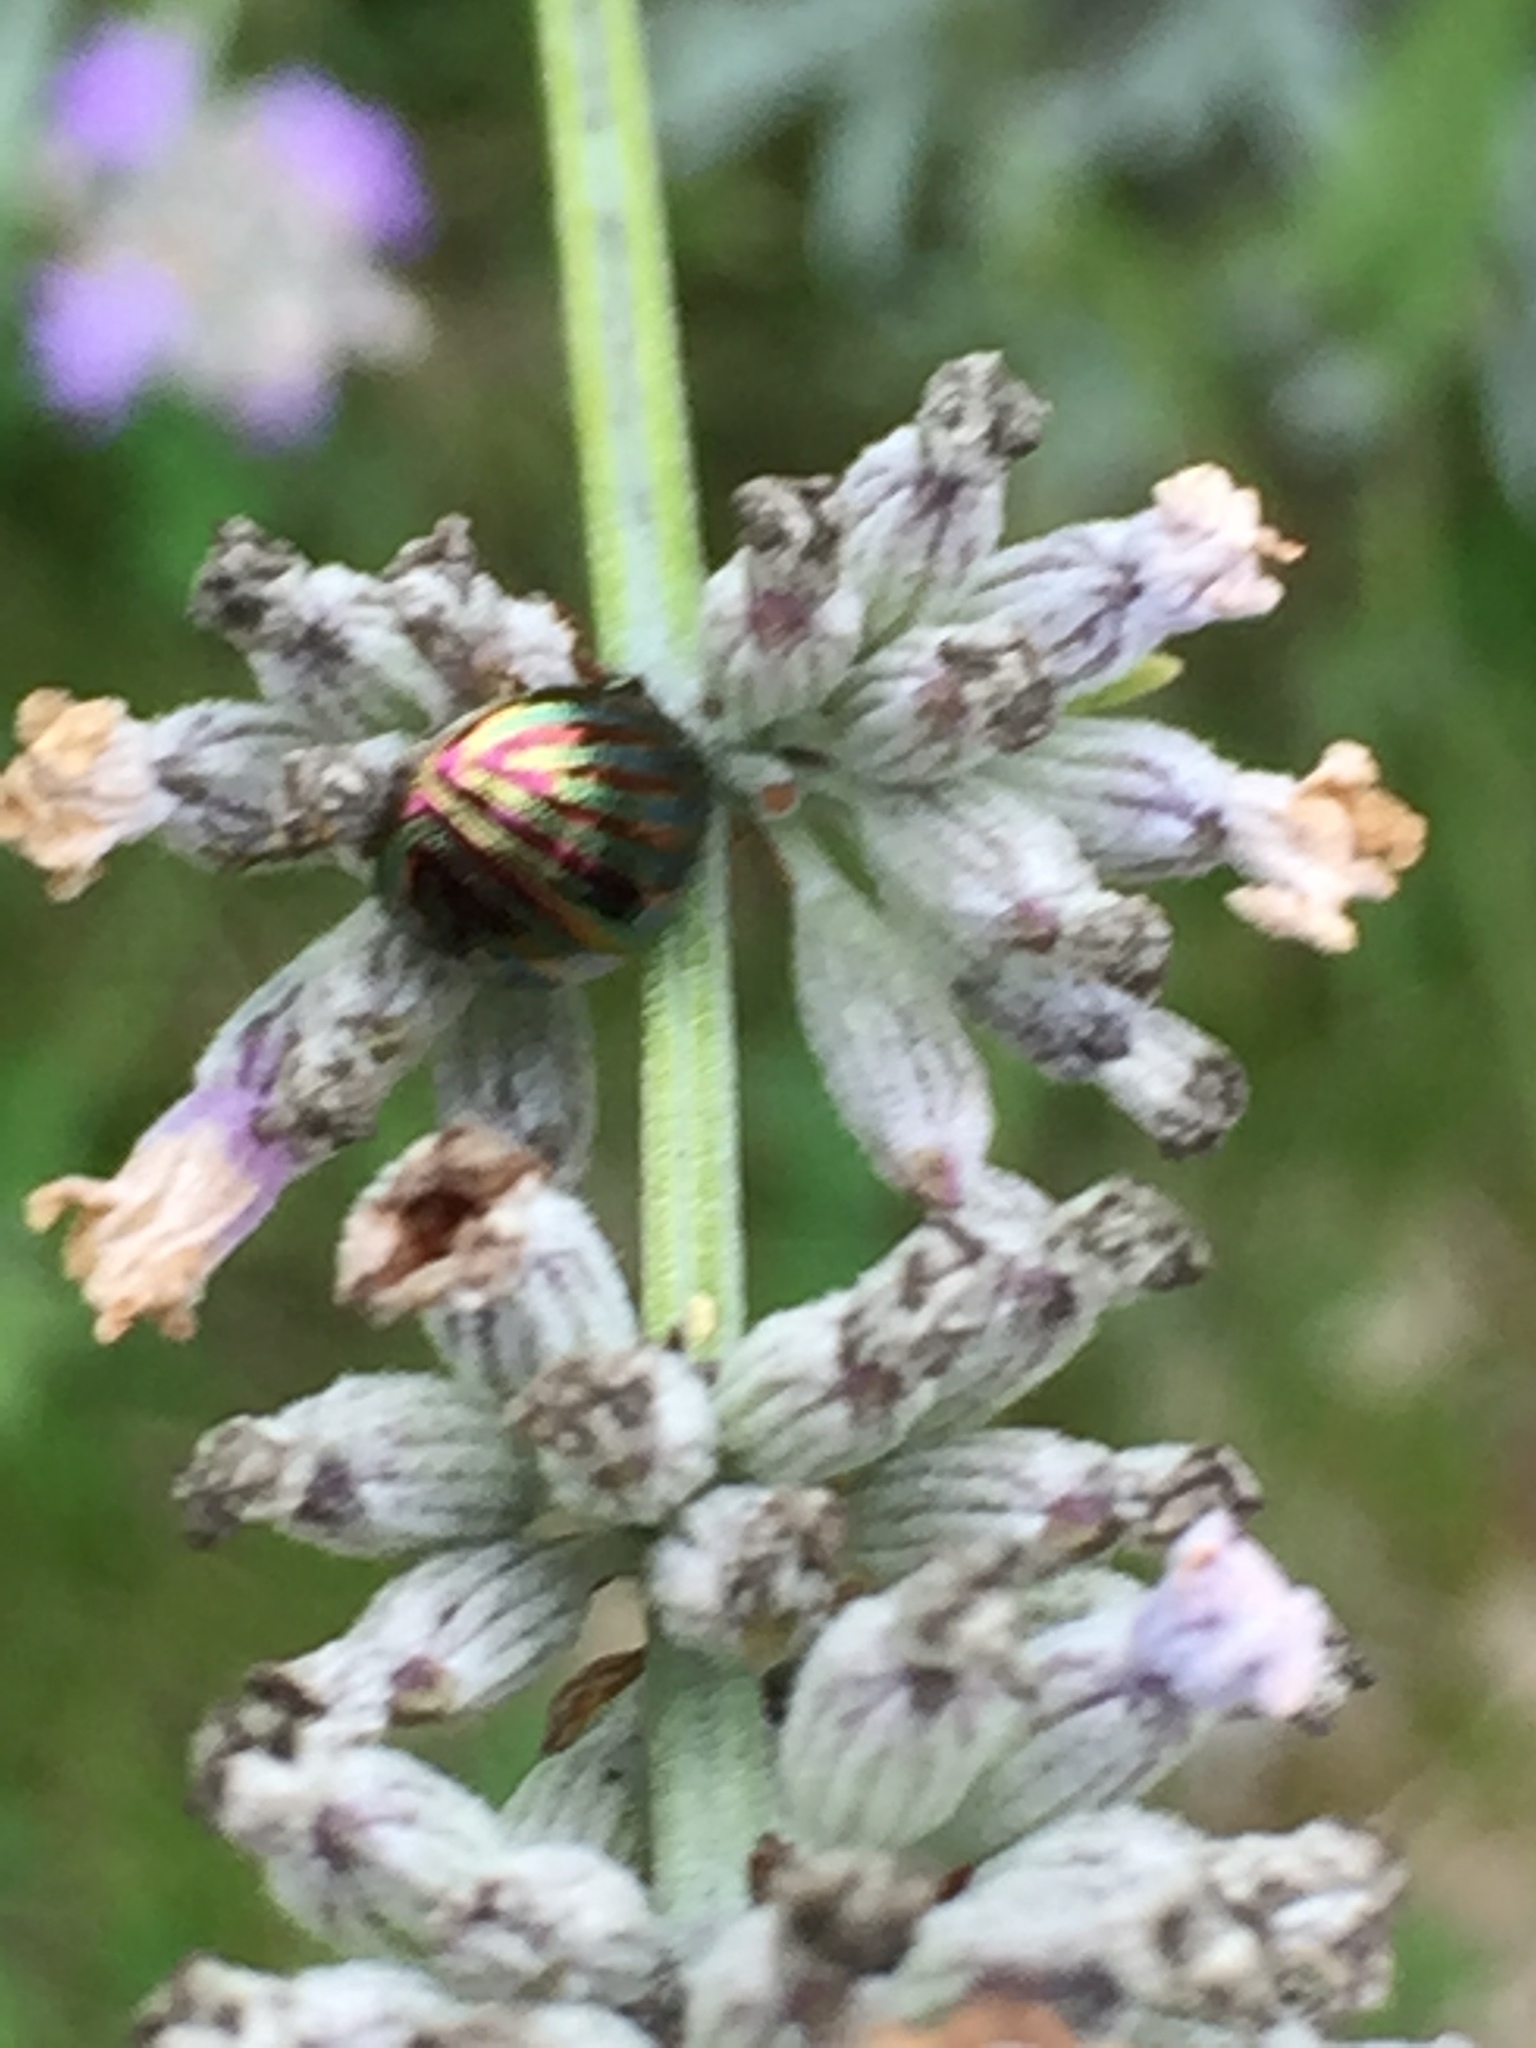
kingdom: Animalia
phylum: Arthropoda
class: Insecta
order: Coleoptera
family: Chrysomelidae
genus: Chrysolina
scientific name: Chrysolina americana
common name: Rosemary beetle
